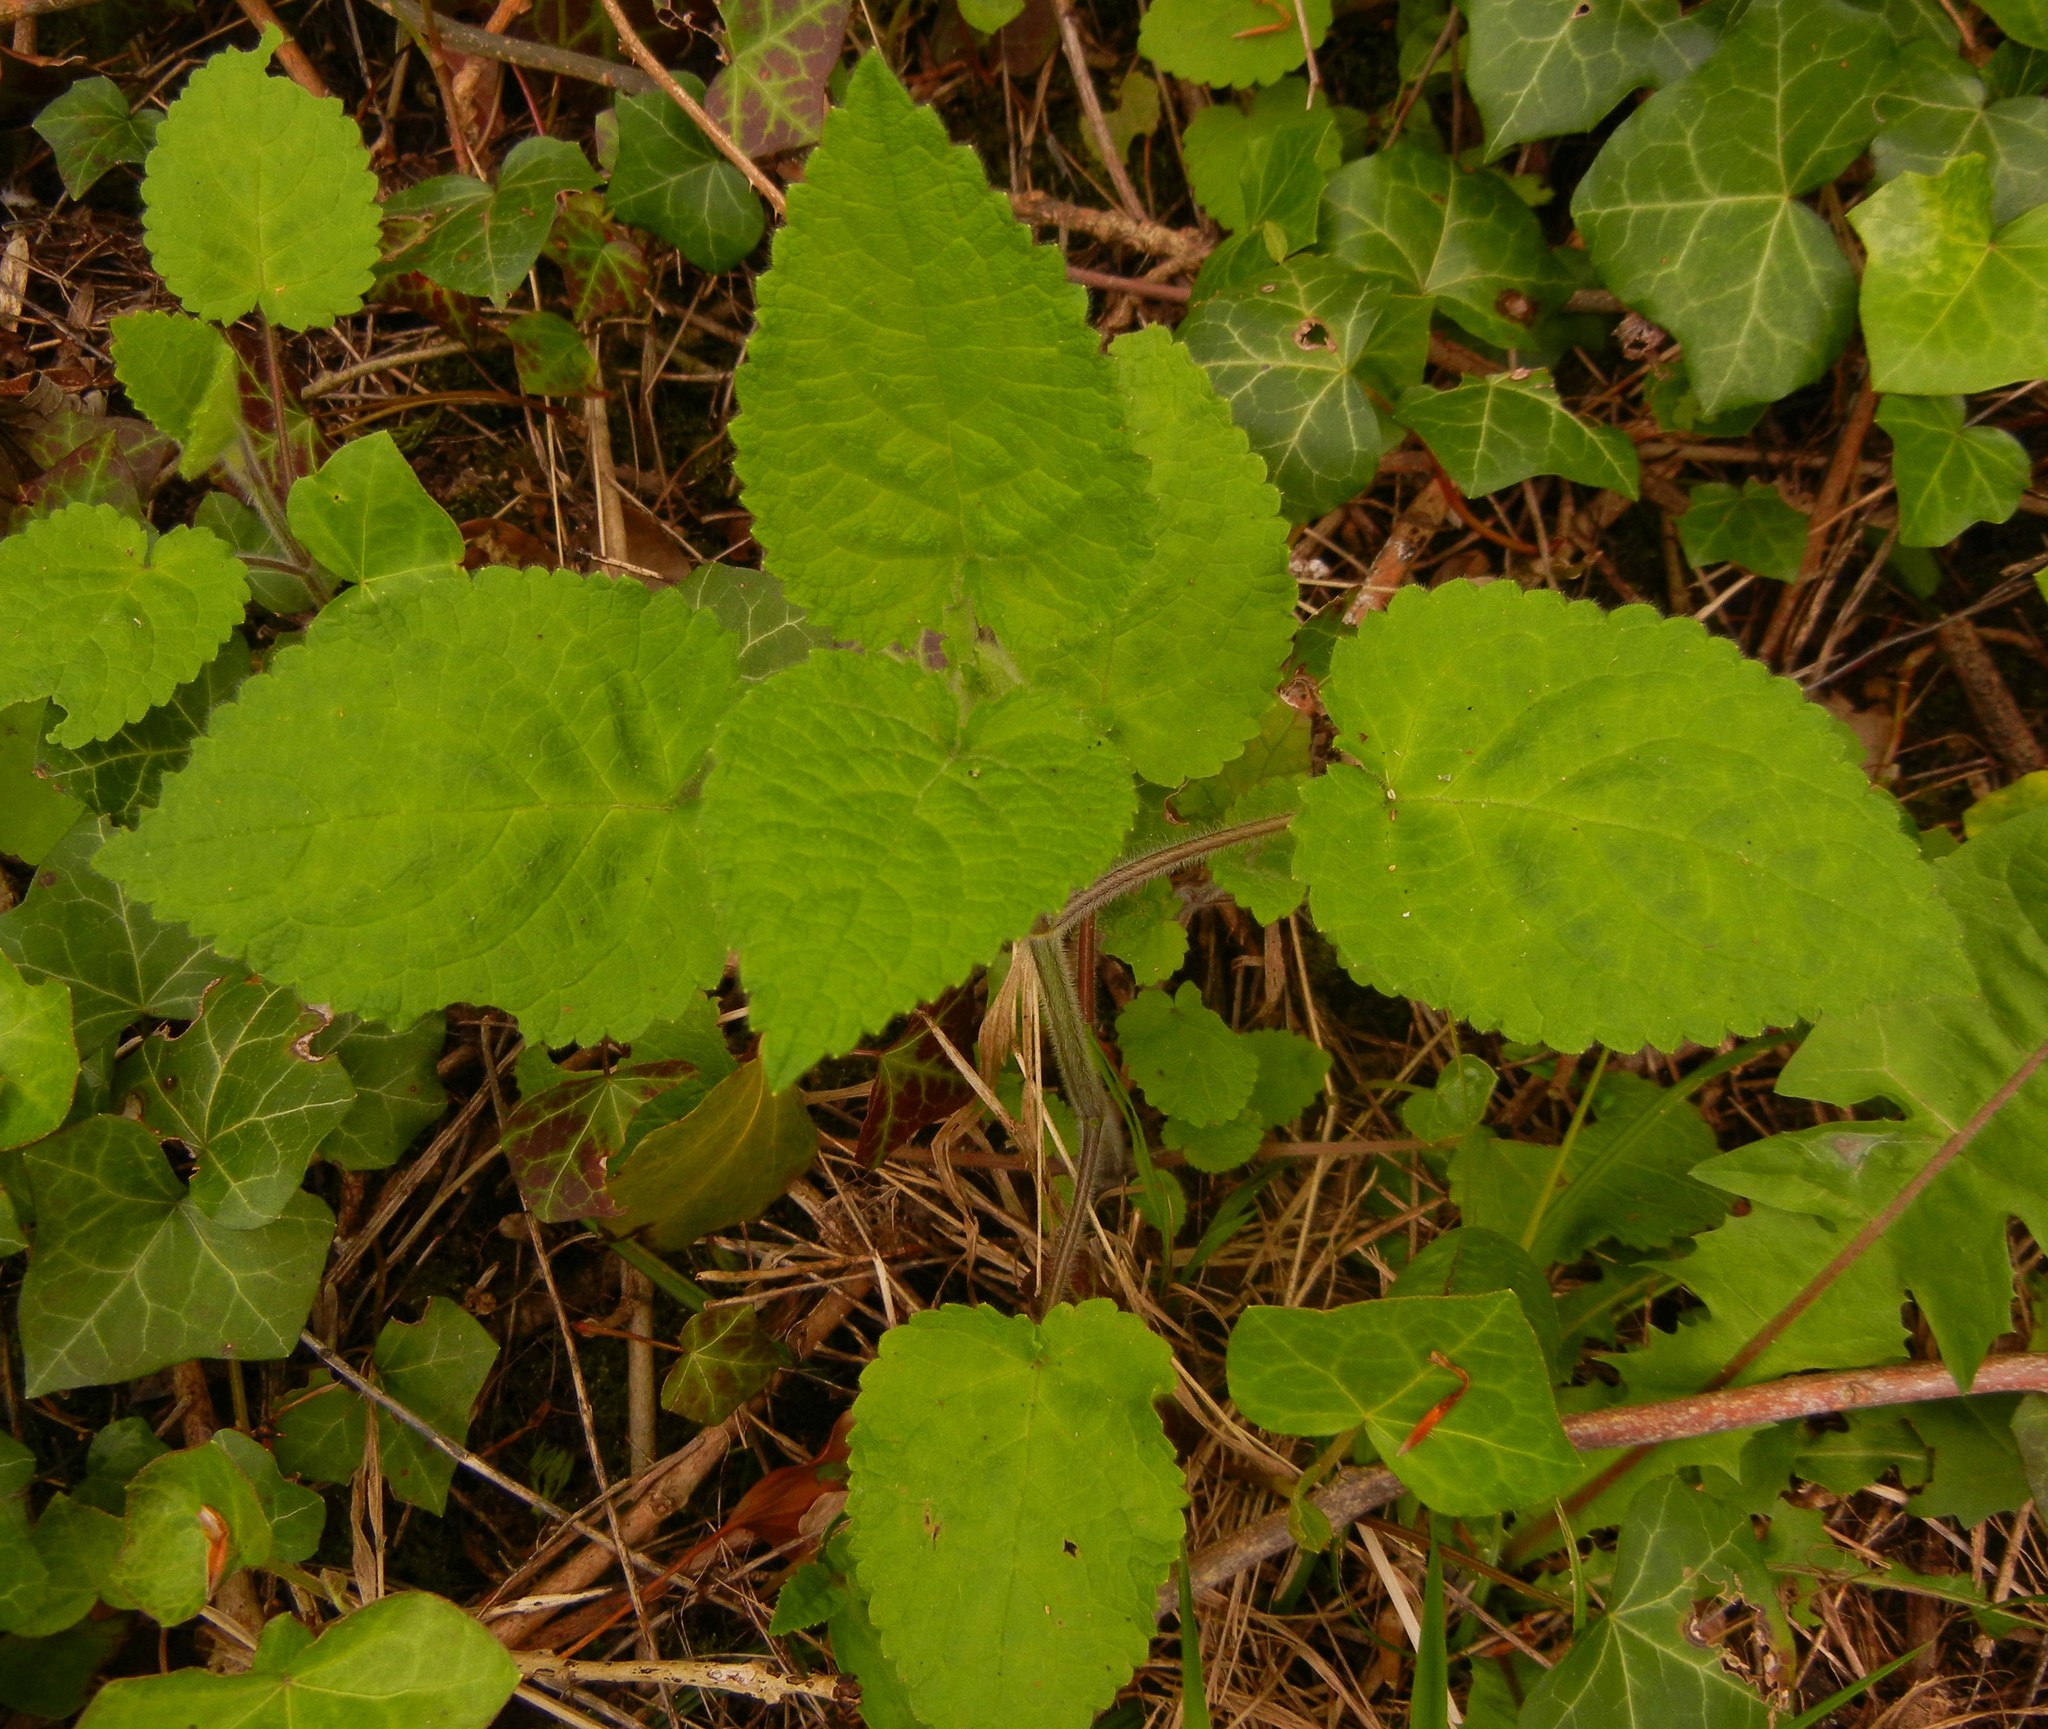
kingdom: Plantae
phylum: Tracheophyta
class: Magnoliopsida
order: Lamiales
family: Lamiaceae
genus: Stachys
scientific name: Stachys sylvatica
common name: Hedge woundwort
